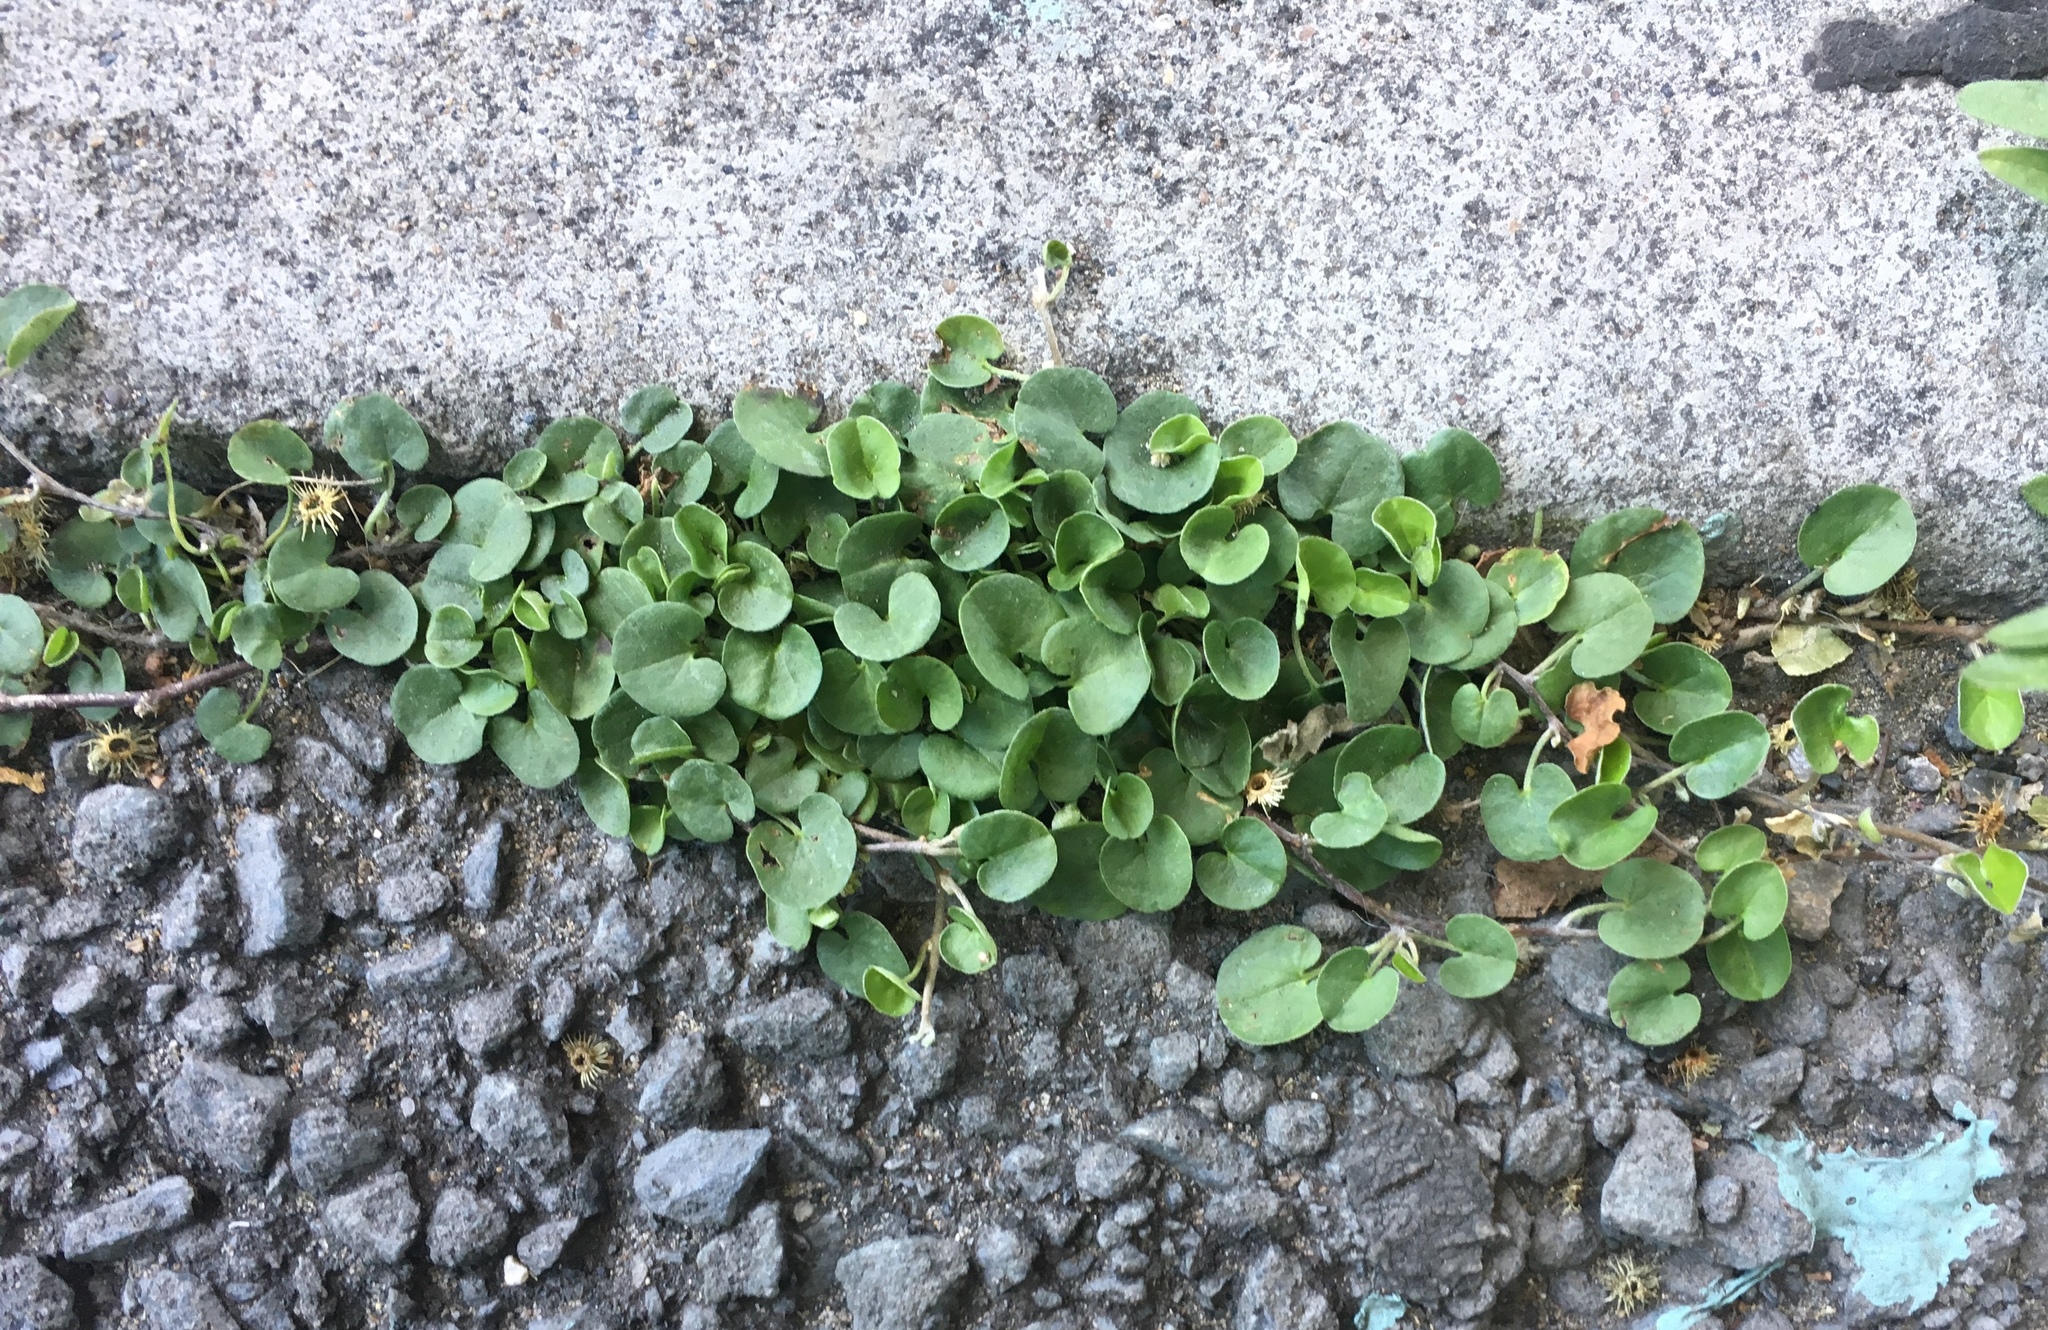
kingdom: Plantae
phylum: Tracheophyta
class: Magnoliopsida
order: Solanales
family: Convolvulaceae
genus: Dichondra
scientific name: Dichondra micrantha
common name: Kidneyweed
